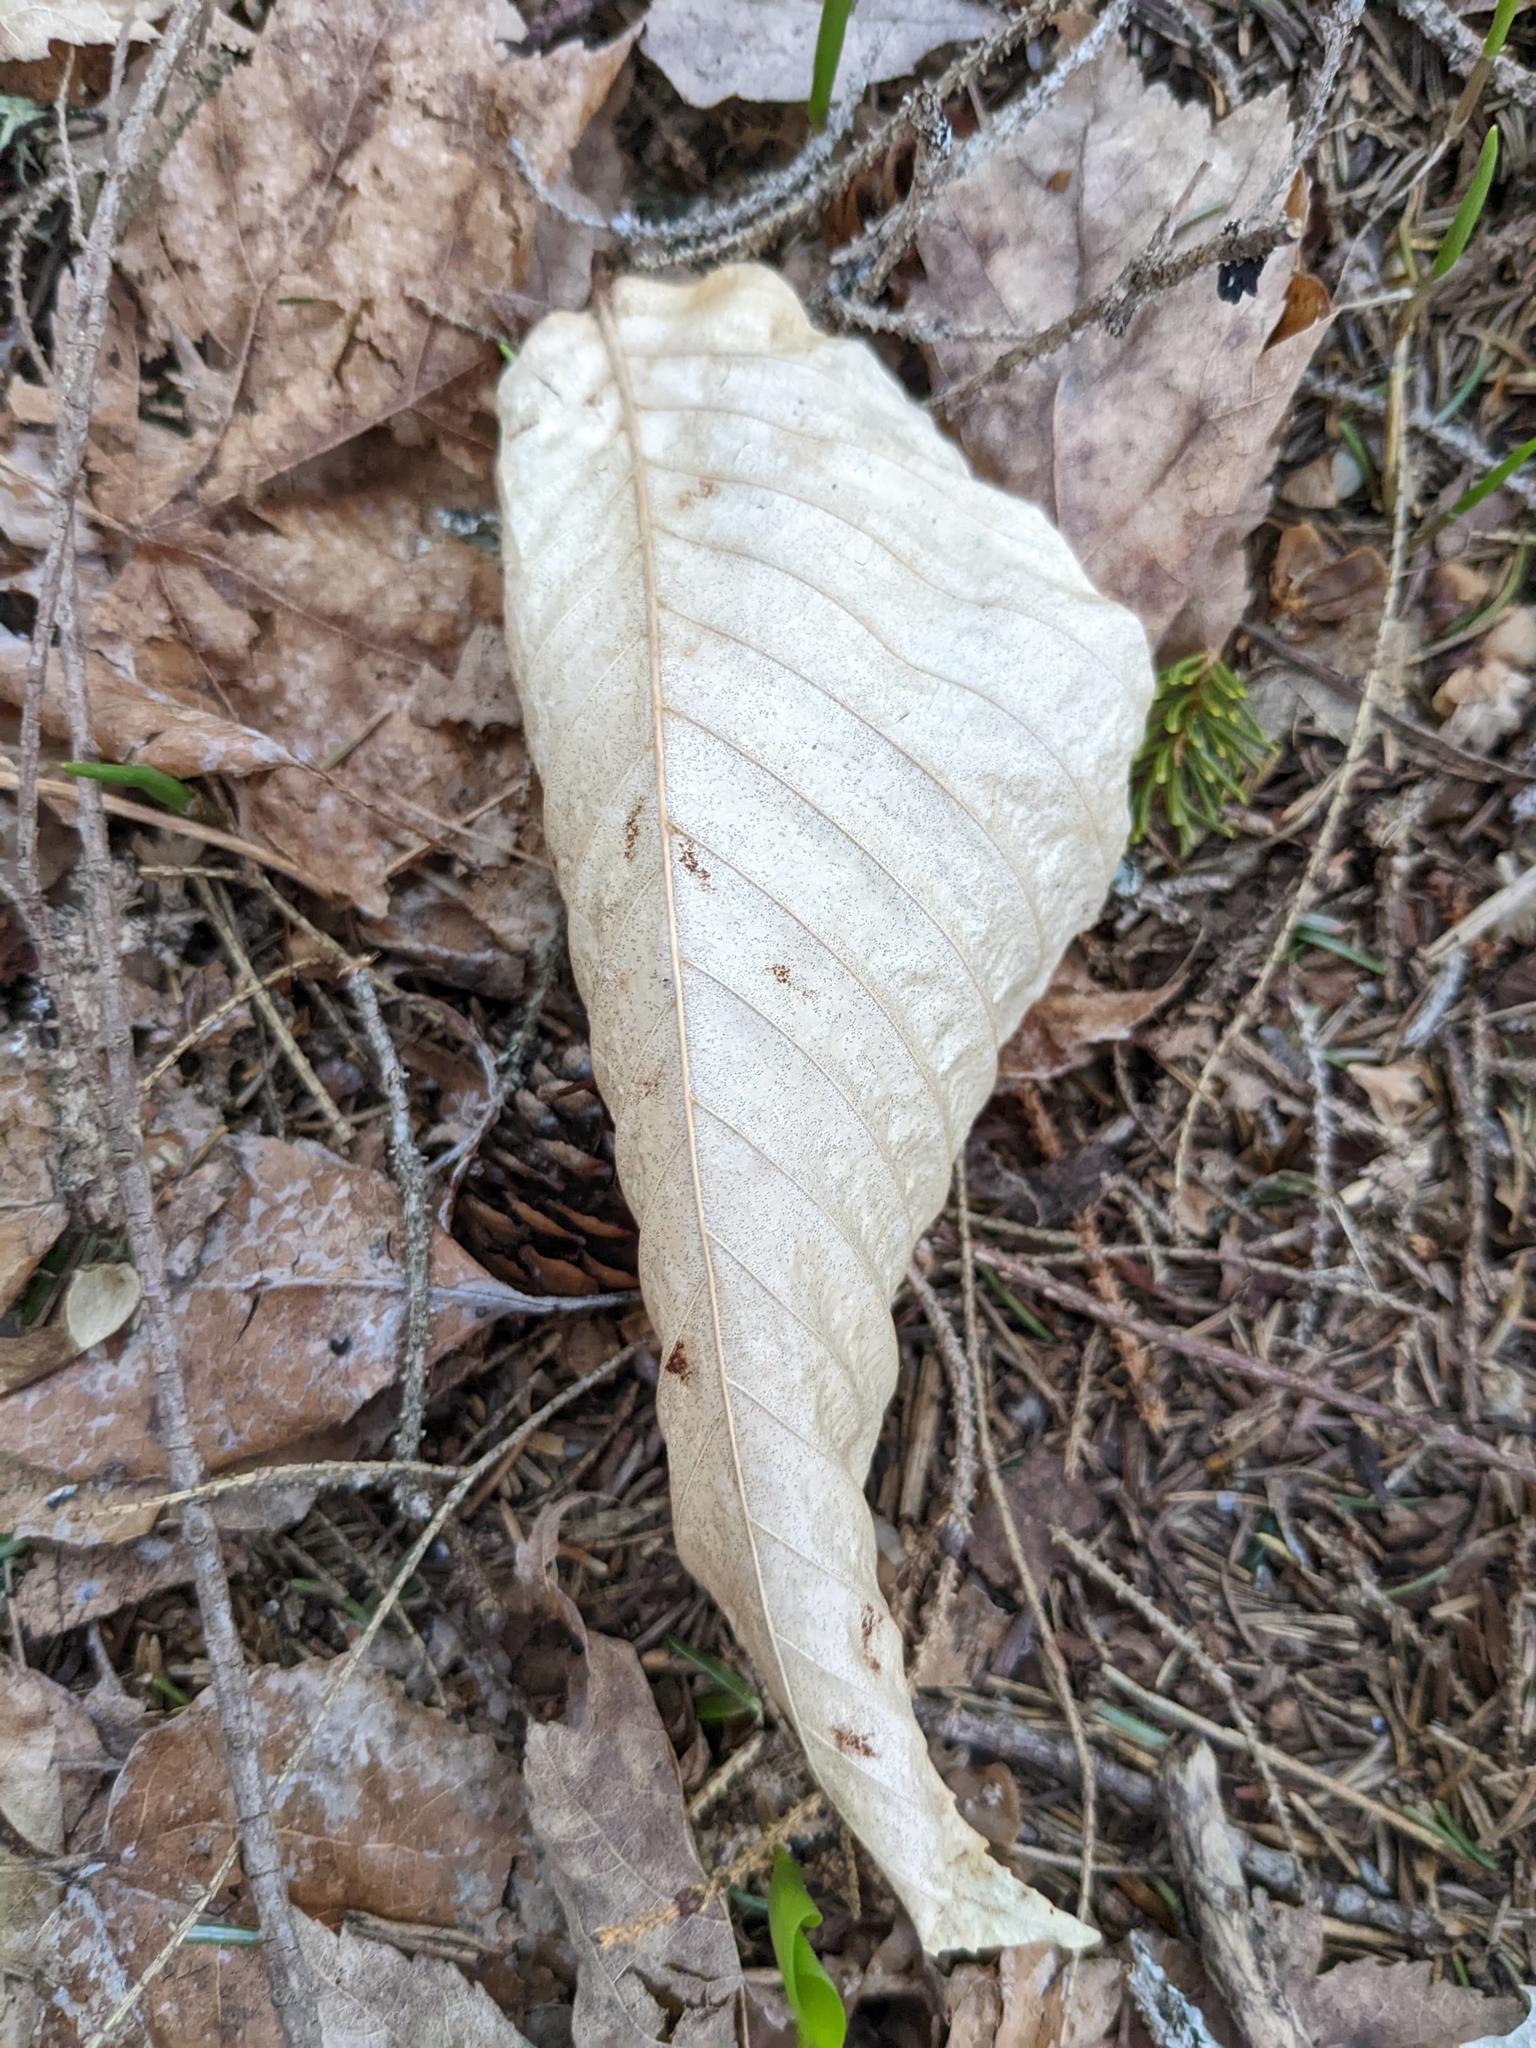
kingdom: Plantae
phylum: Tracheophyta
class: Magnoliopsida
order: Fagales
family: Fagaceae
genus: Fagus
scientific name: Fagus grandifolia
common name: American beech
